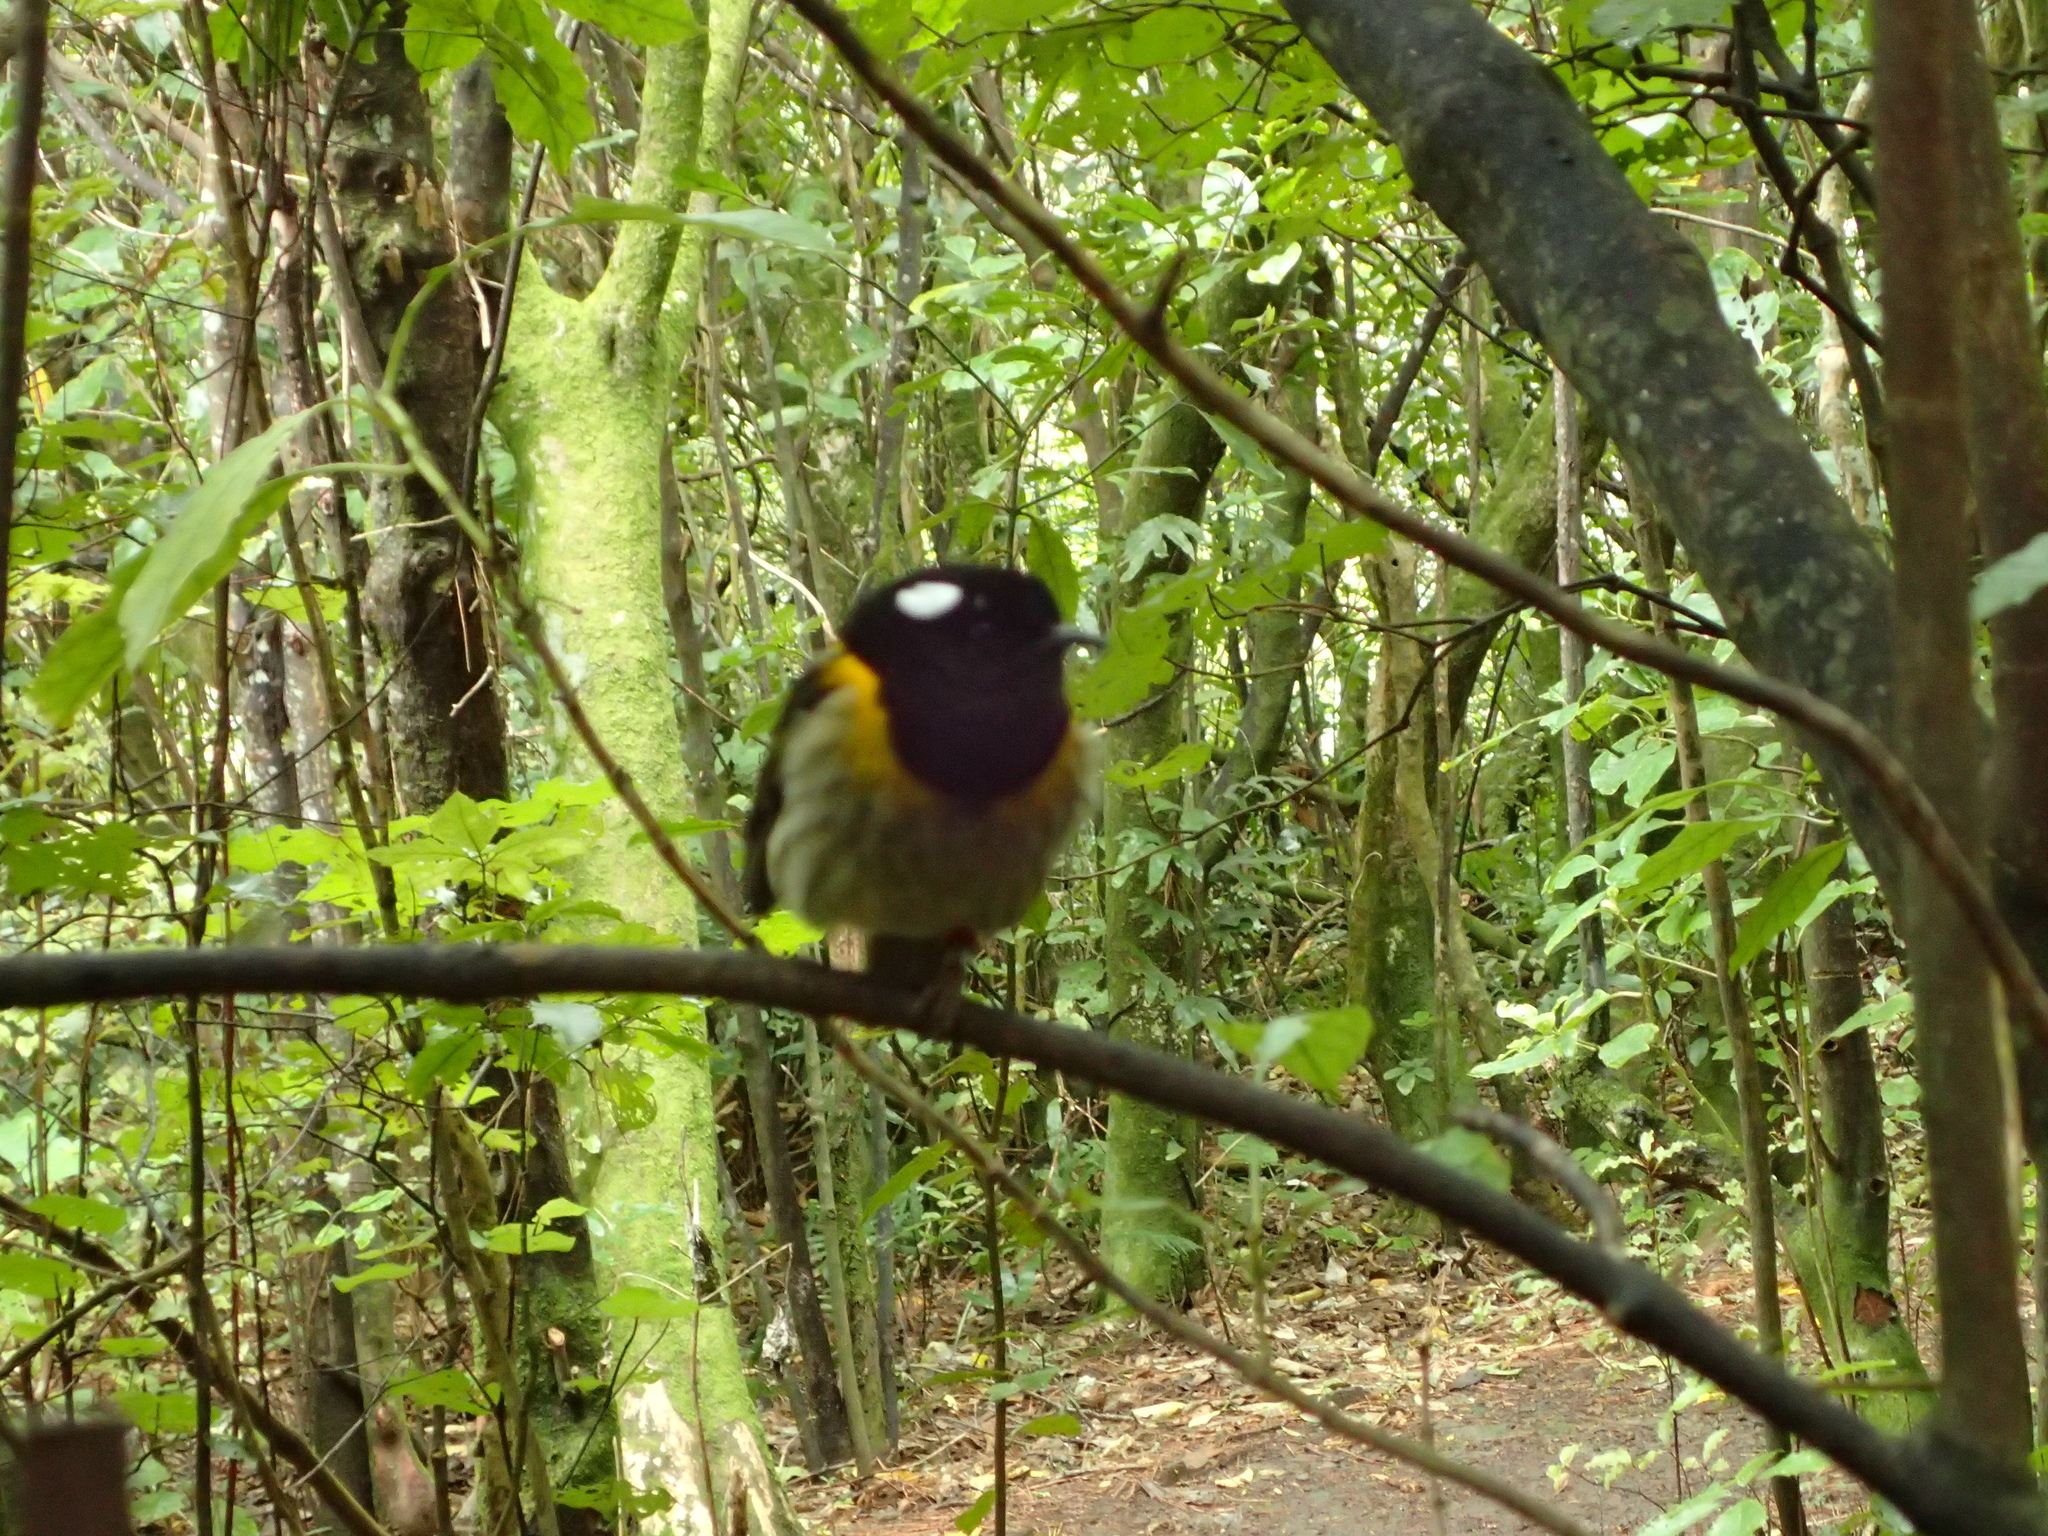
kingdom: Animalia
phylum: Chordata
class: Aves
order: Passeriformes
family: Notiomystidae
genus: Notiomystis
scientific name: Notiomystis cincta
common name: Stitchbird
